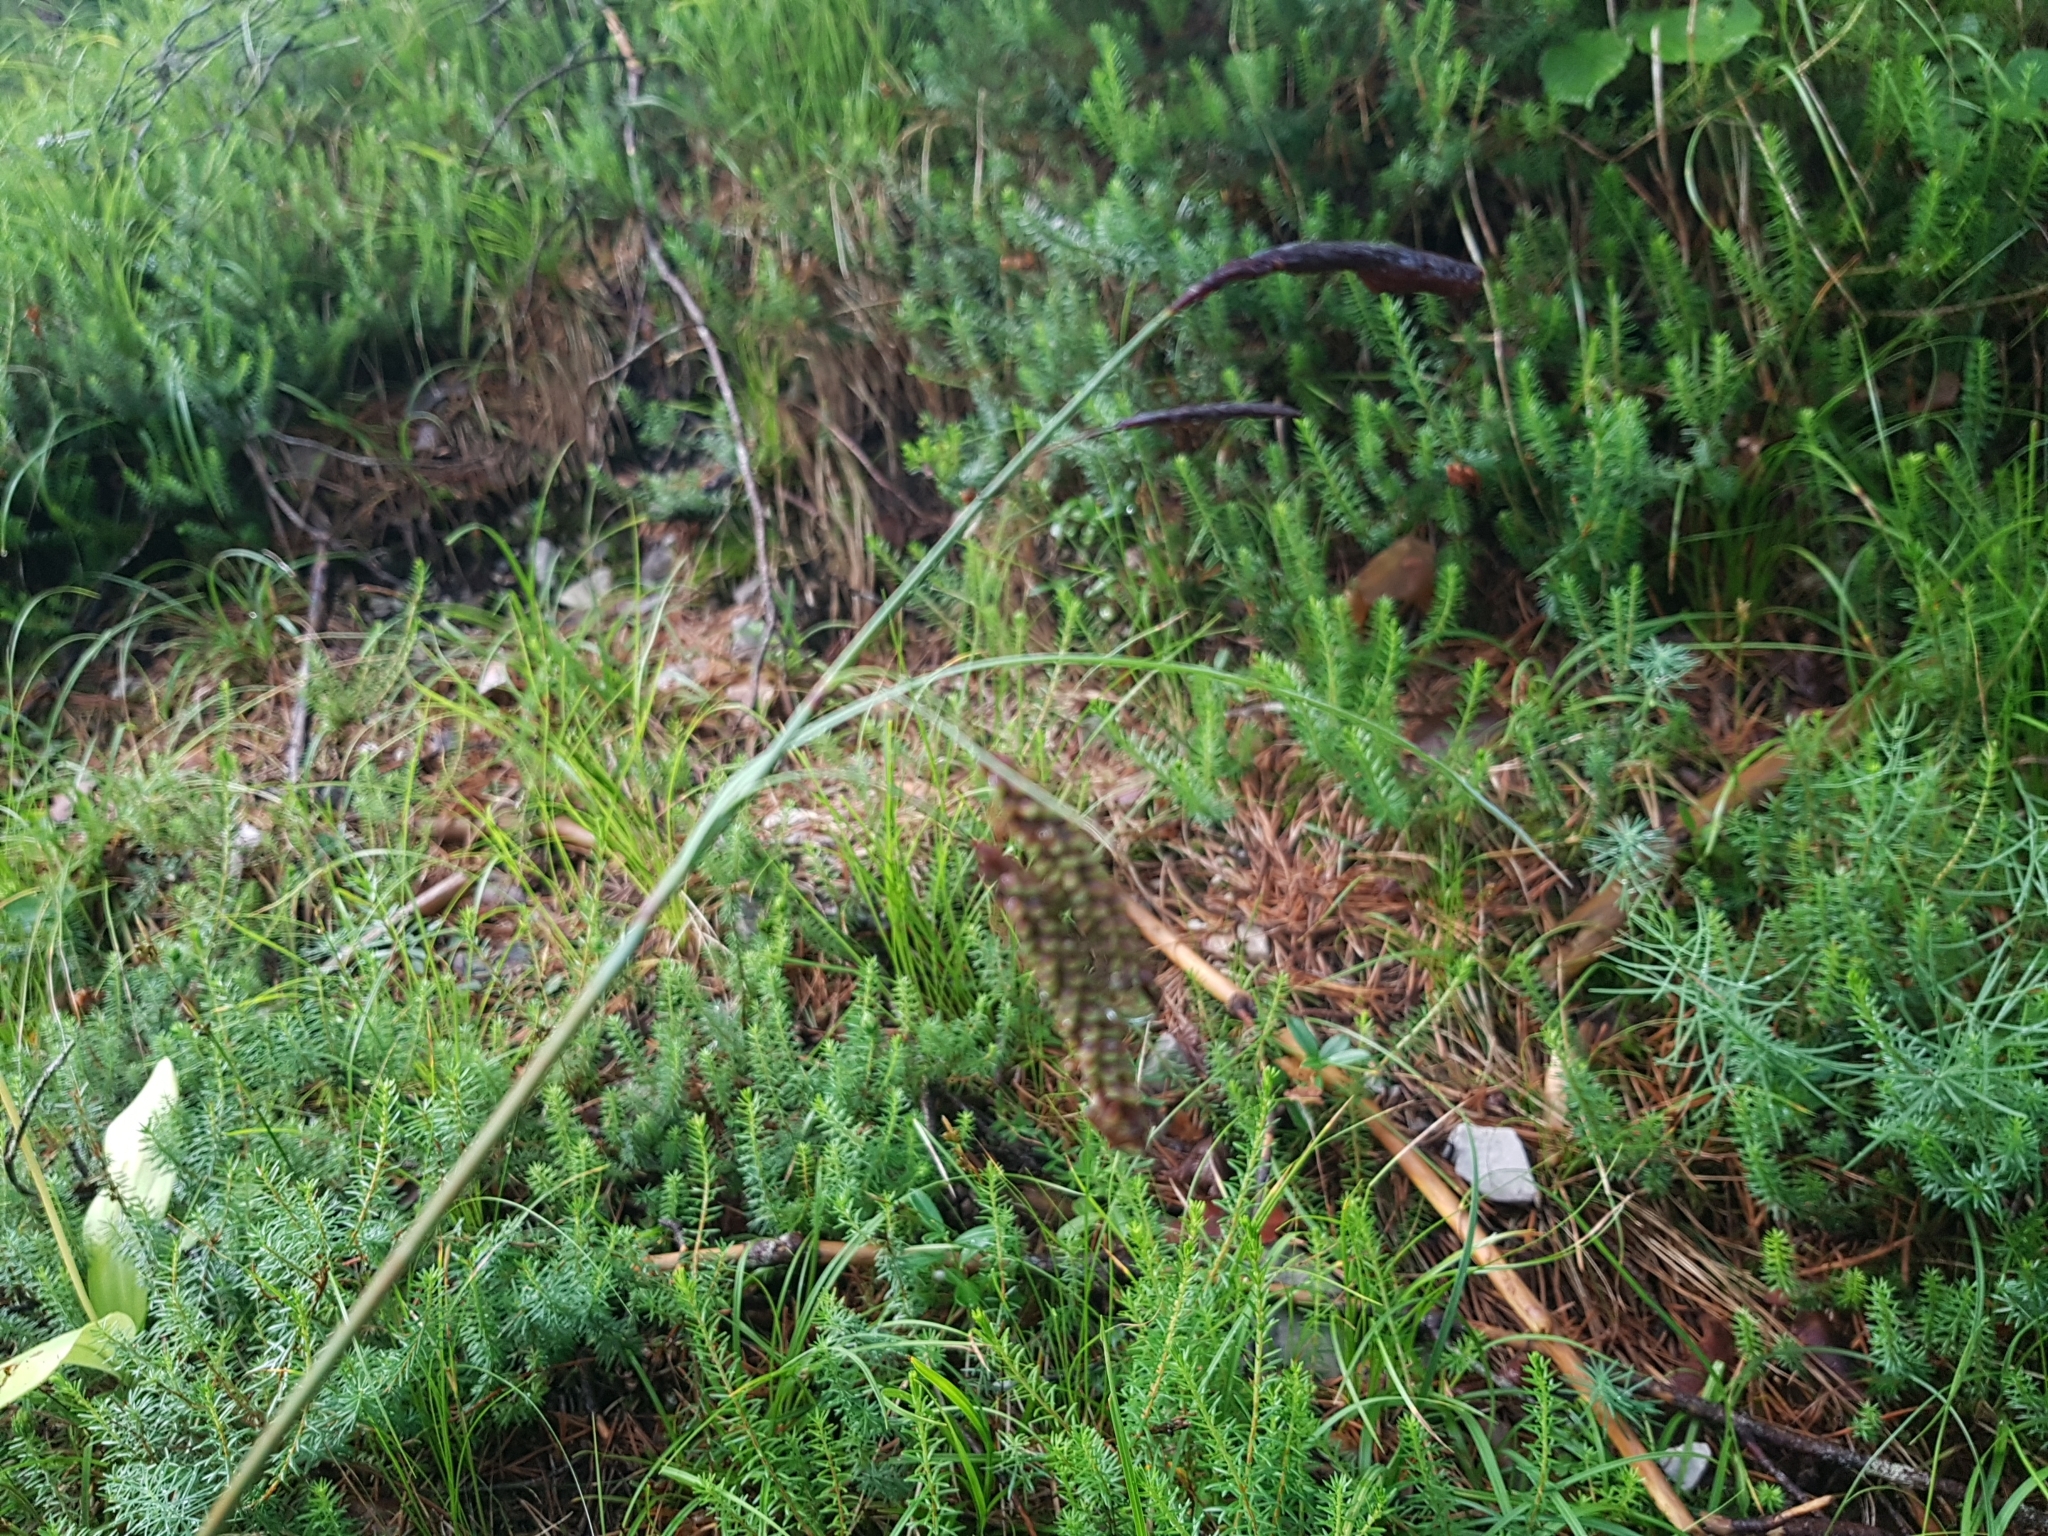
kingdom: Plantae
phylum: Tracheophyta
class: Liliopsida
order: Poales
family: Cyperaceae
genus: Carex
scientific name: Carex flacca
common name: Glaucous sedge
